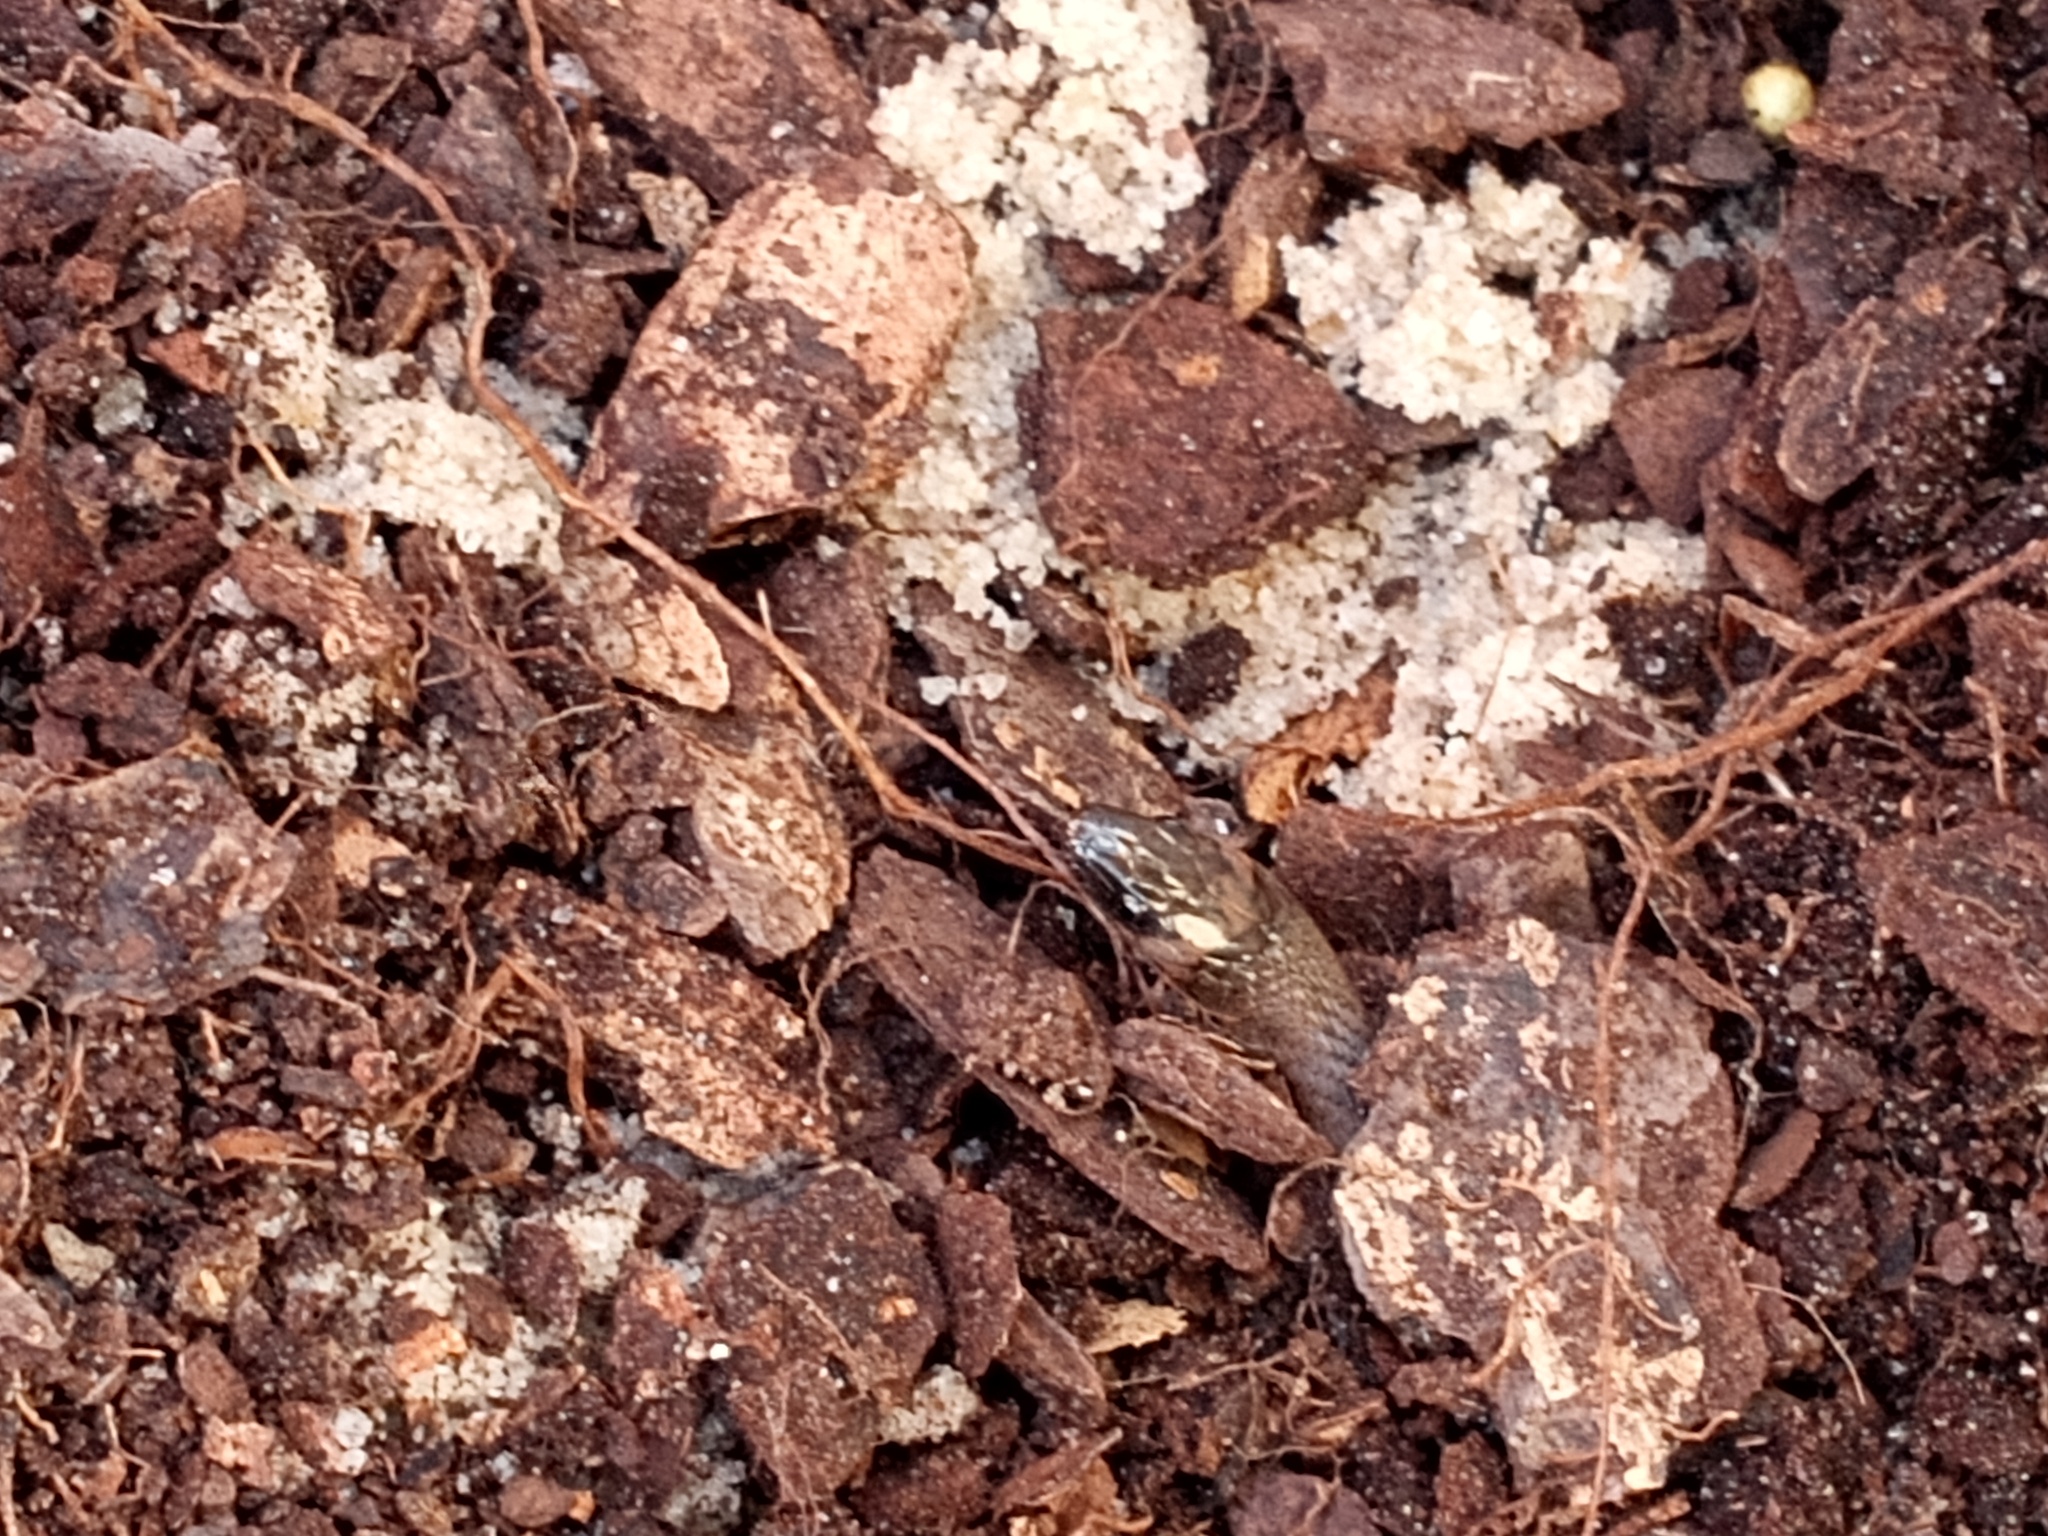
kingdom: Animalia
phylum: Chordata
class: Squamata
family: Colubridae
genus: Haldea
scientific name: Haldea striatula
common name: Rough earth snake
